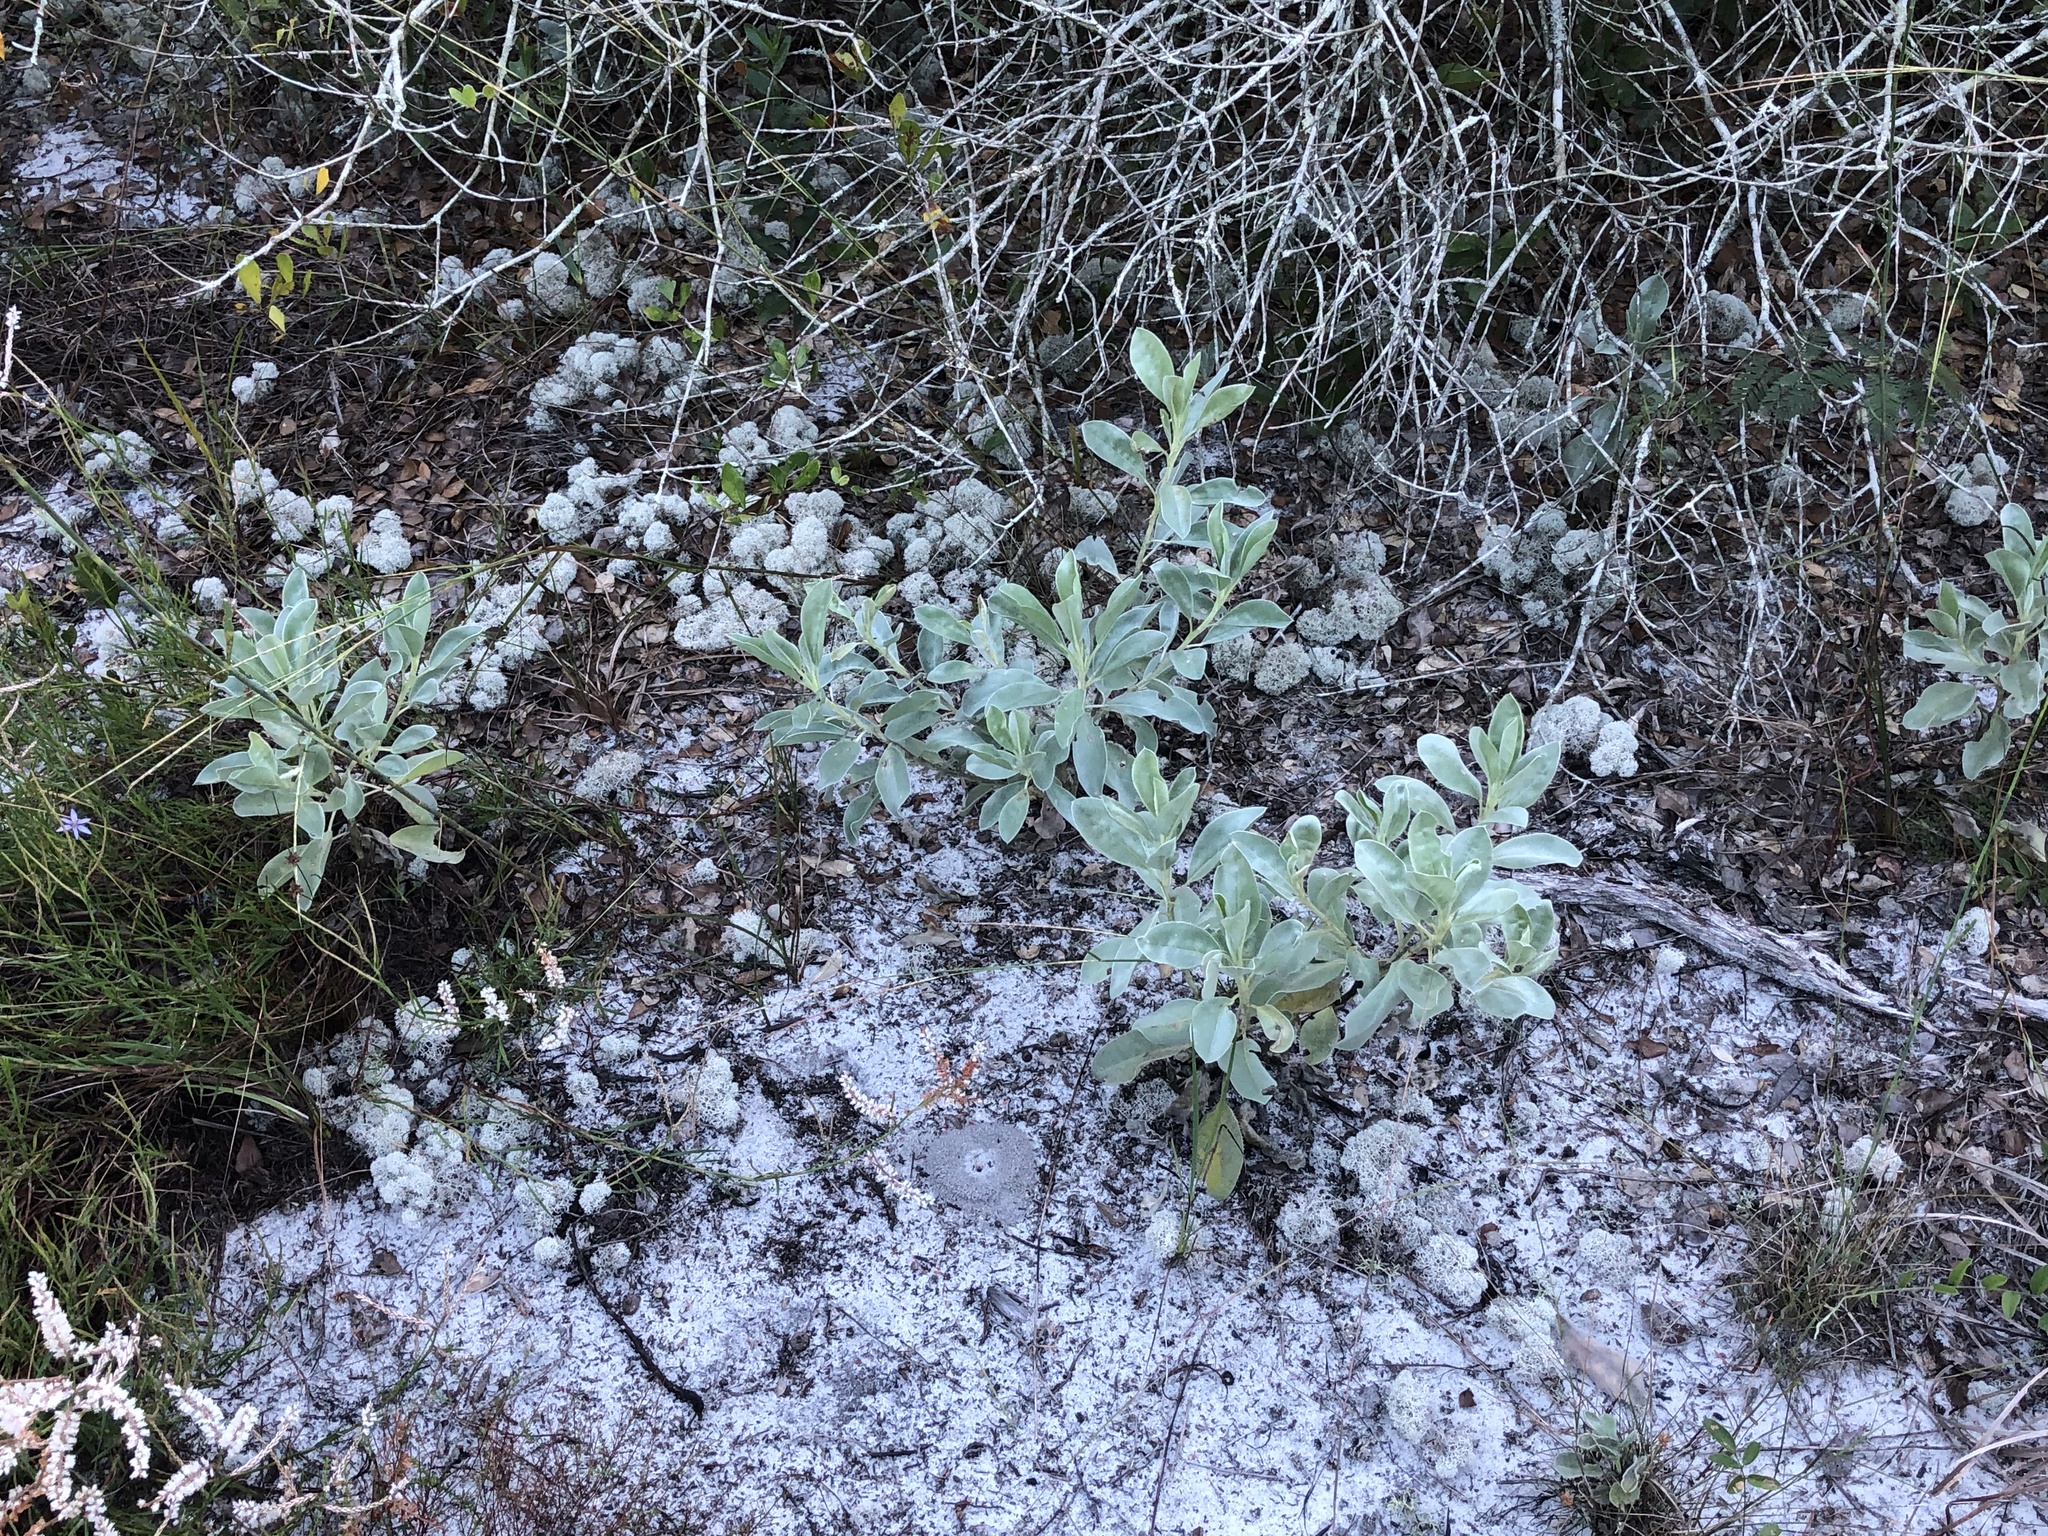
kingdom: Plantae
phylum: Tracheophyta
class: Magnoliopsida
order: Fabales
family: Fabaceae
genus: Lupinus
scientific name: Lupinus cumulicola
